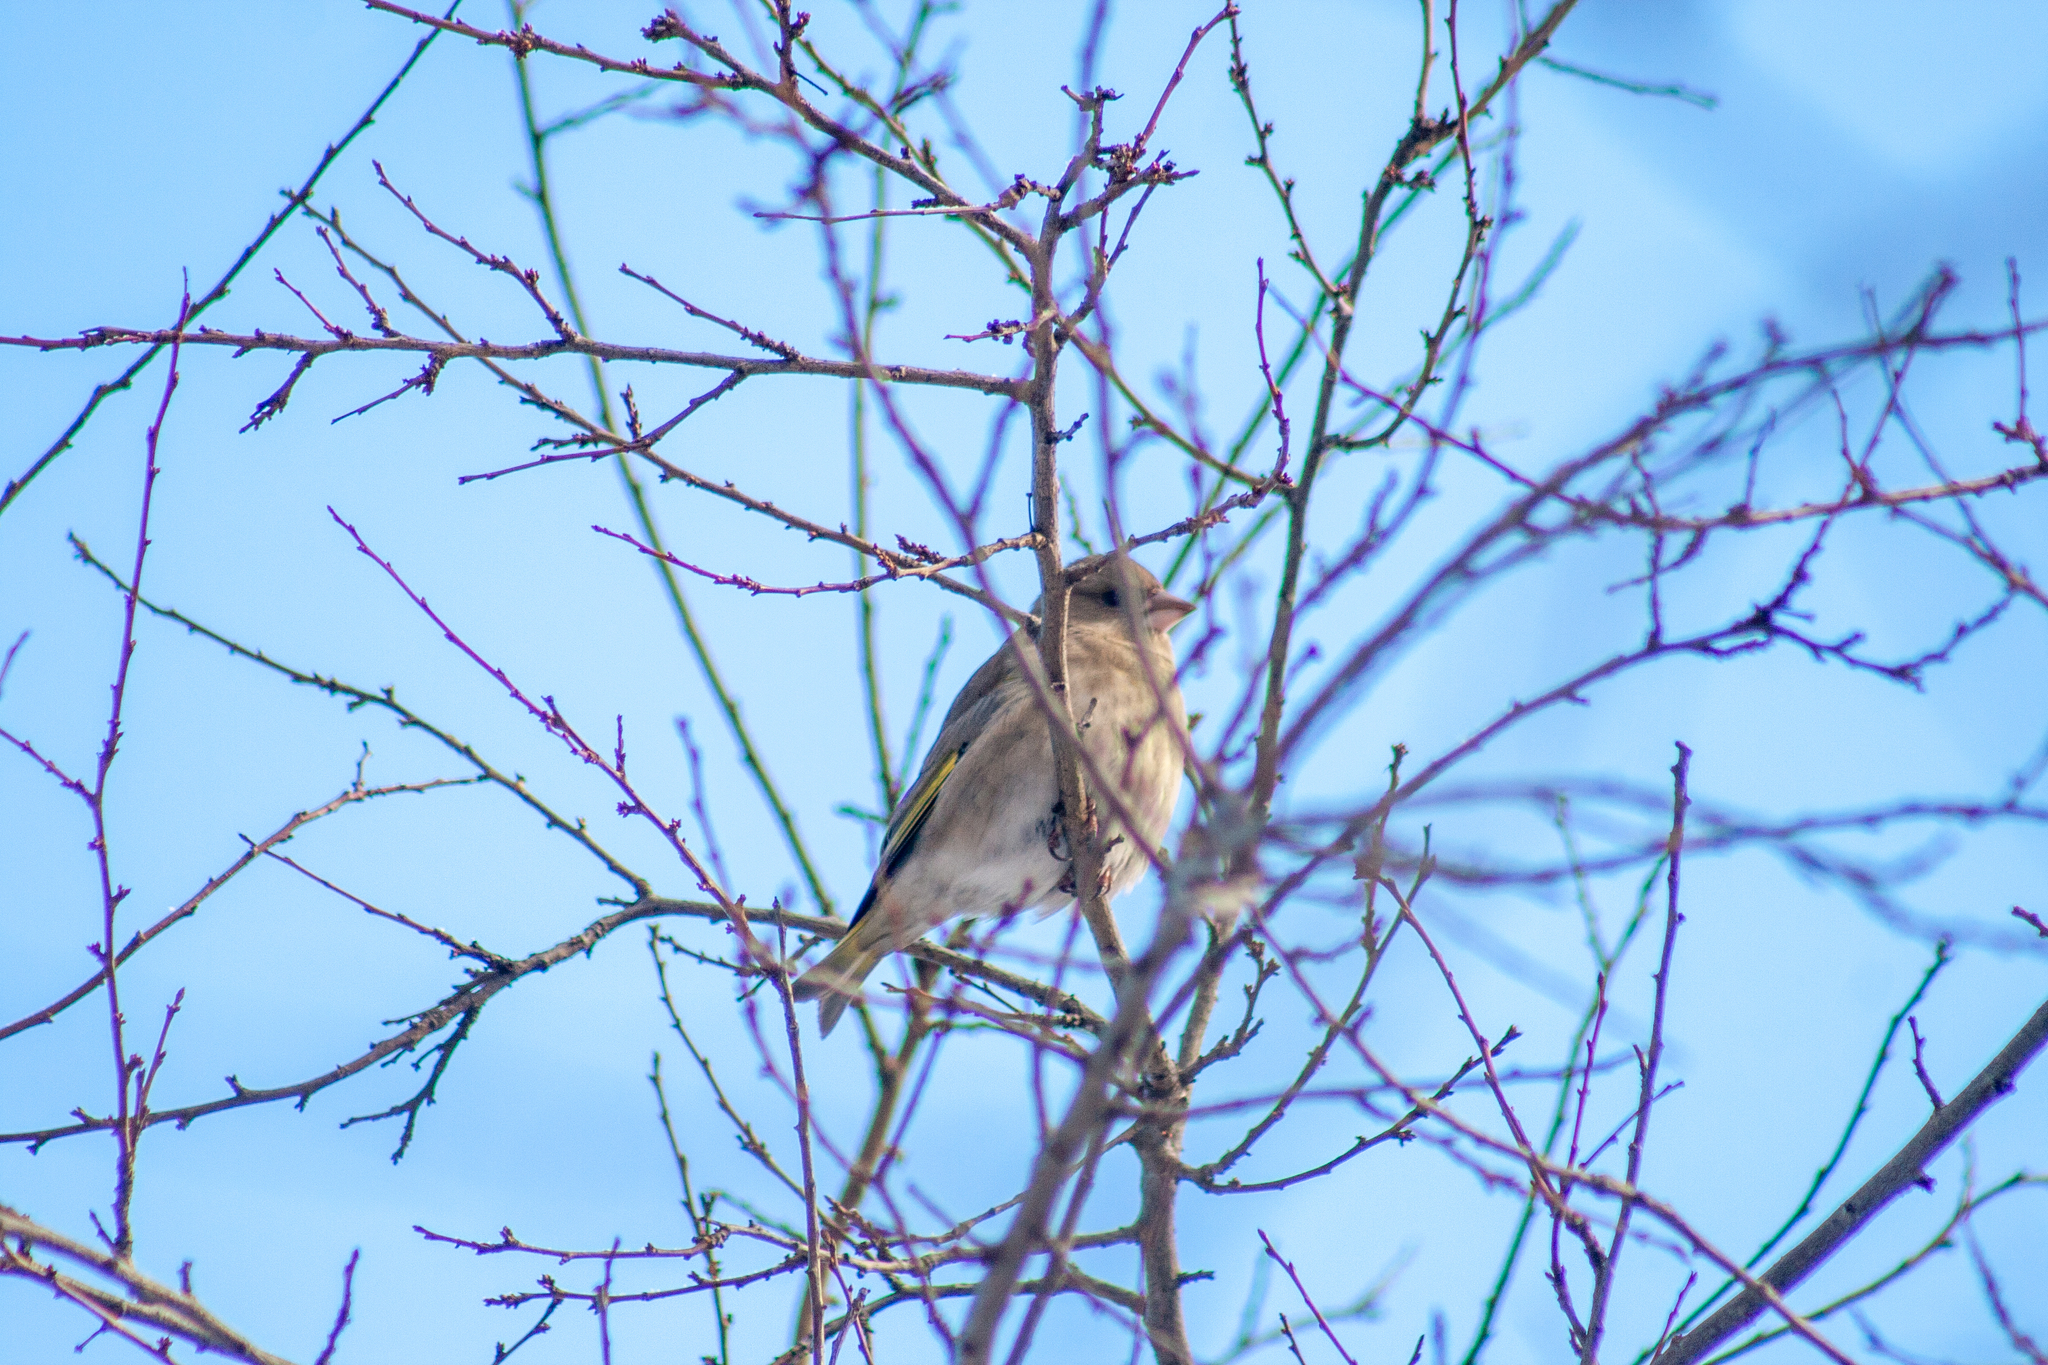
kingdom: Plantae
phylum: Tracheophyta
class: Liliopsida
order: Poales
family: Poaceae
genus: Chloris
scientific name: Chloris chloris
